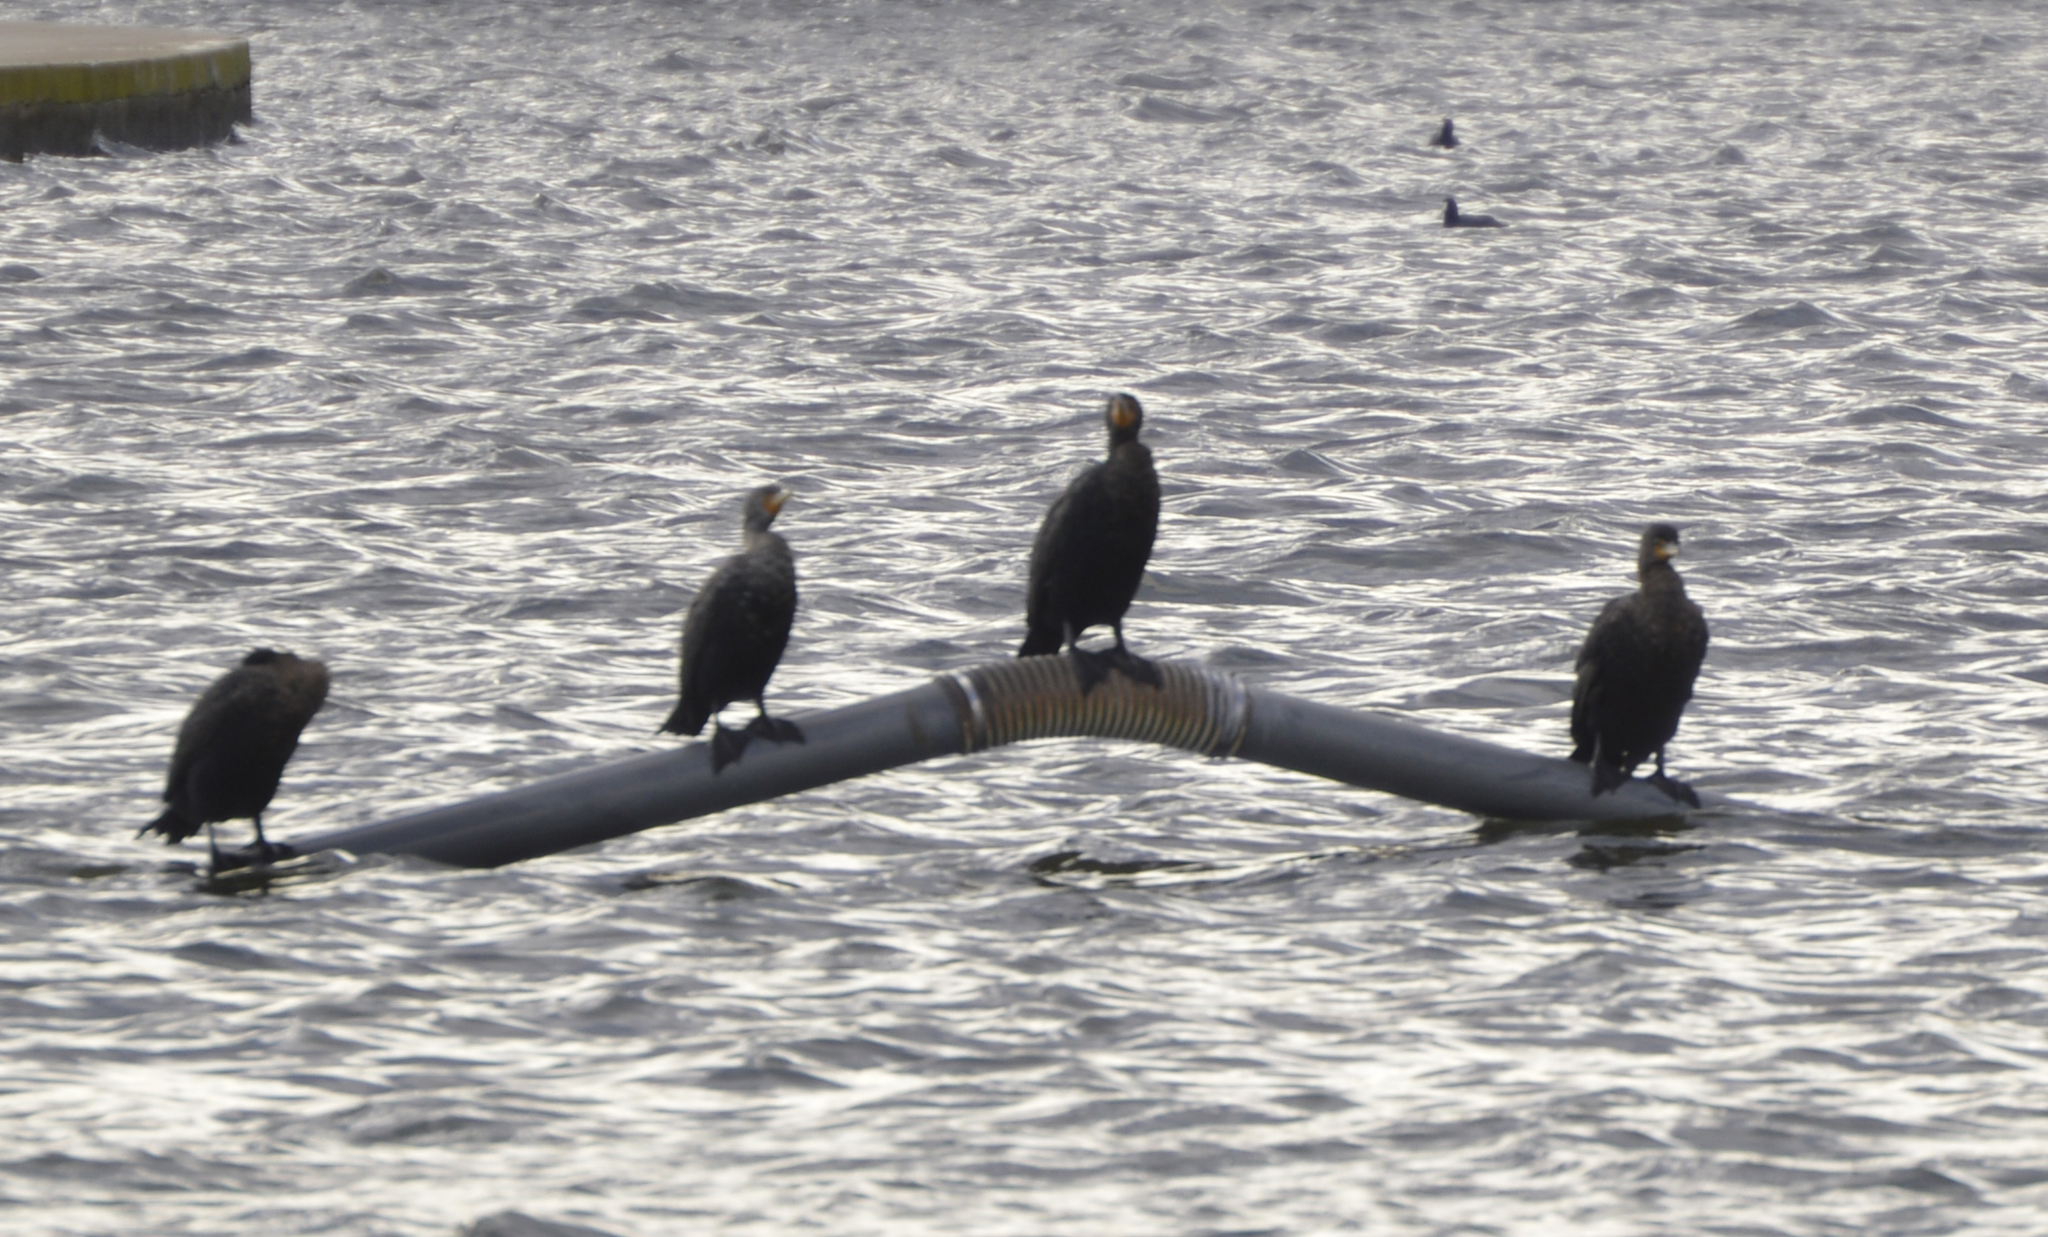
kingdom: Animalia
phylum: Chordata
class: Aves
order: Suliformes
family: Phalacrocoracidae
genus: Phalacrocorax
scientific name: Phalacrocorax auritus
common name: Double-crested cormorant
